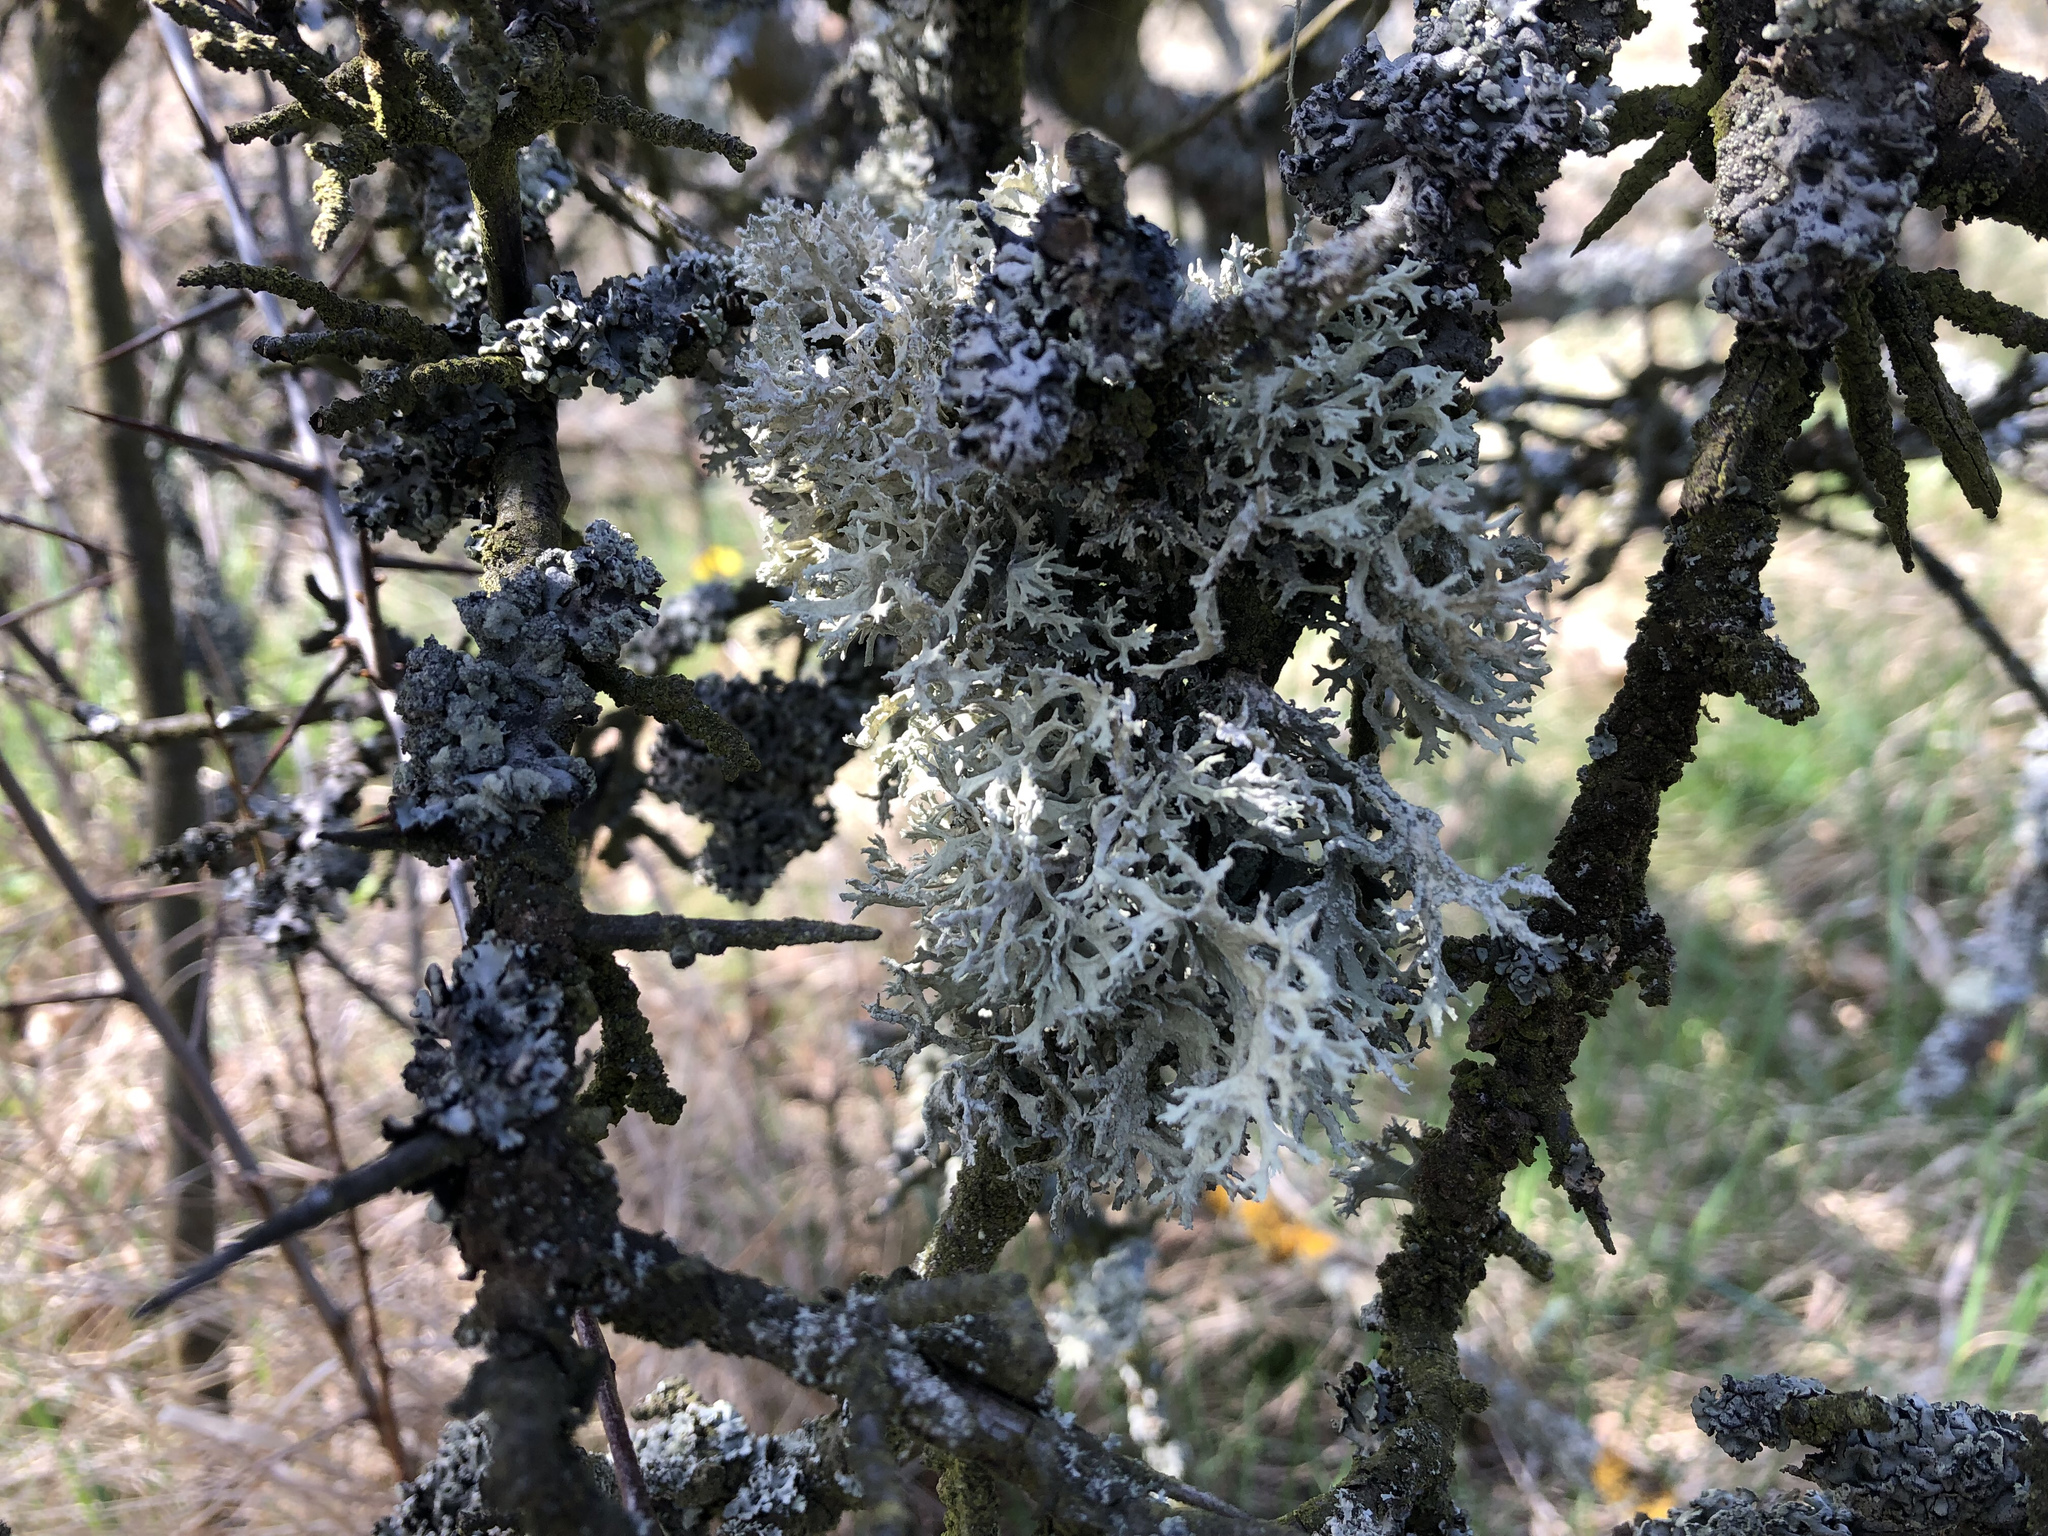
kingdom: Fungi
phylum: Ascomycota
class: Lecanoromycetes
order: Lecanorales
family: Parmeliaceae
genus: Evernia
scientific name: Evernia prunastri
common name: Oak moss
